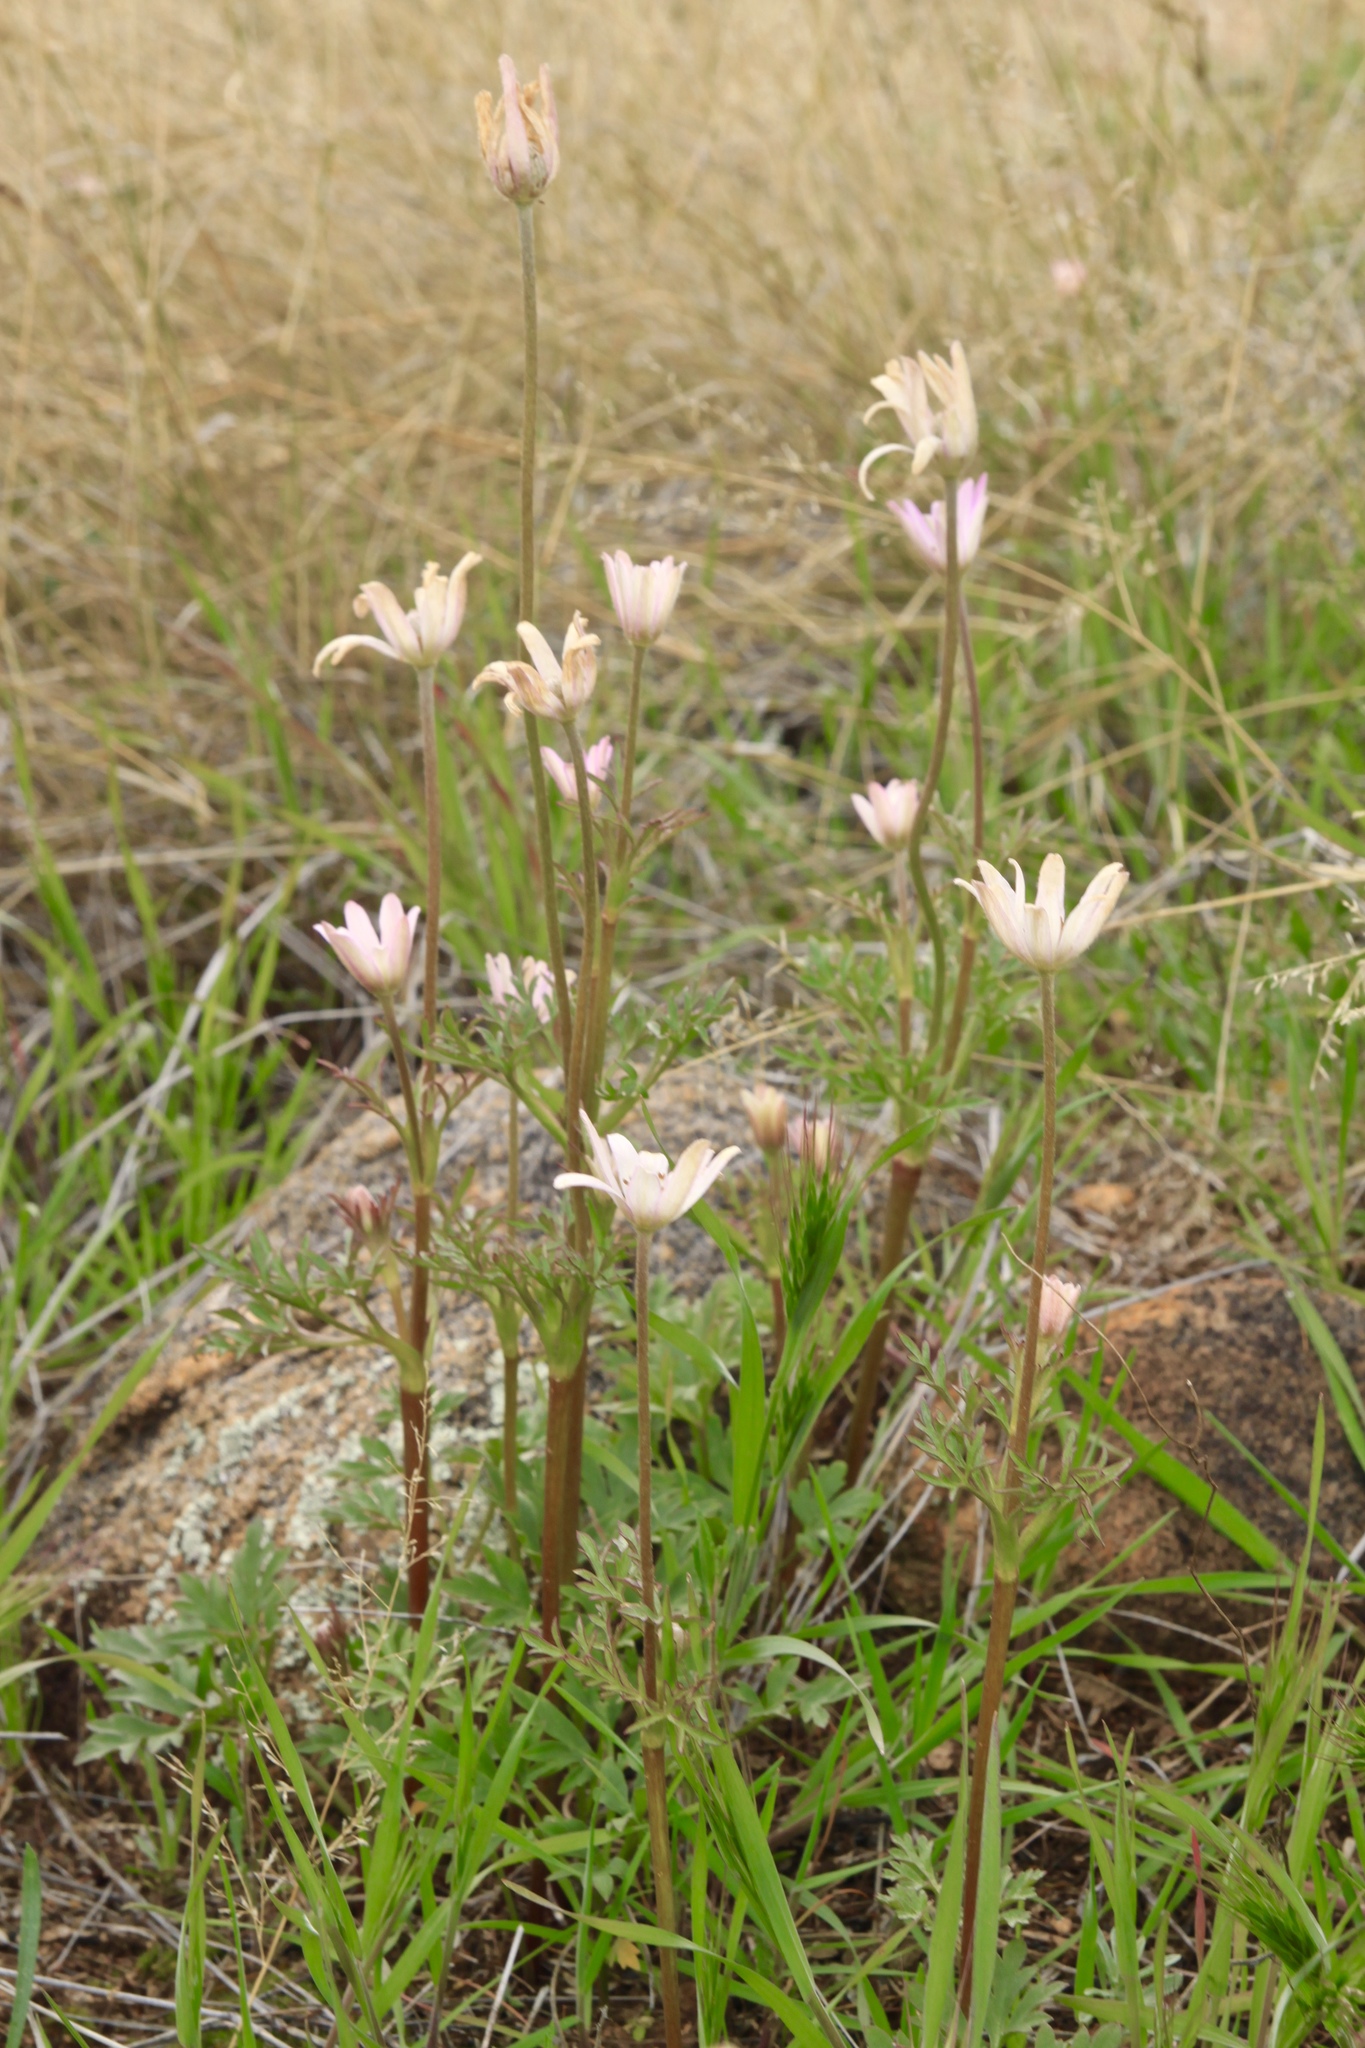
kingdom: Plantae
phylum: Tracheophyta
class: Magnoliopsida
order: Ranunculales
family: Ranunculaceae
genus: Anemone
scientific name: Anemone tuberosa
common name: Desert anemone
